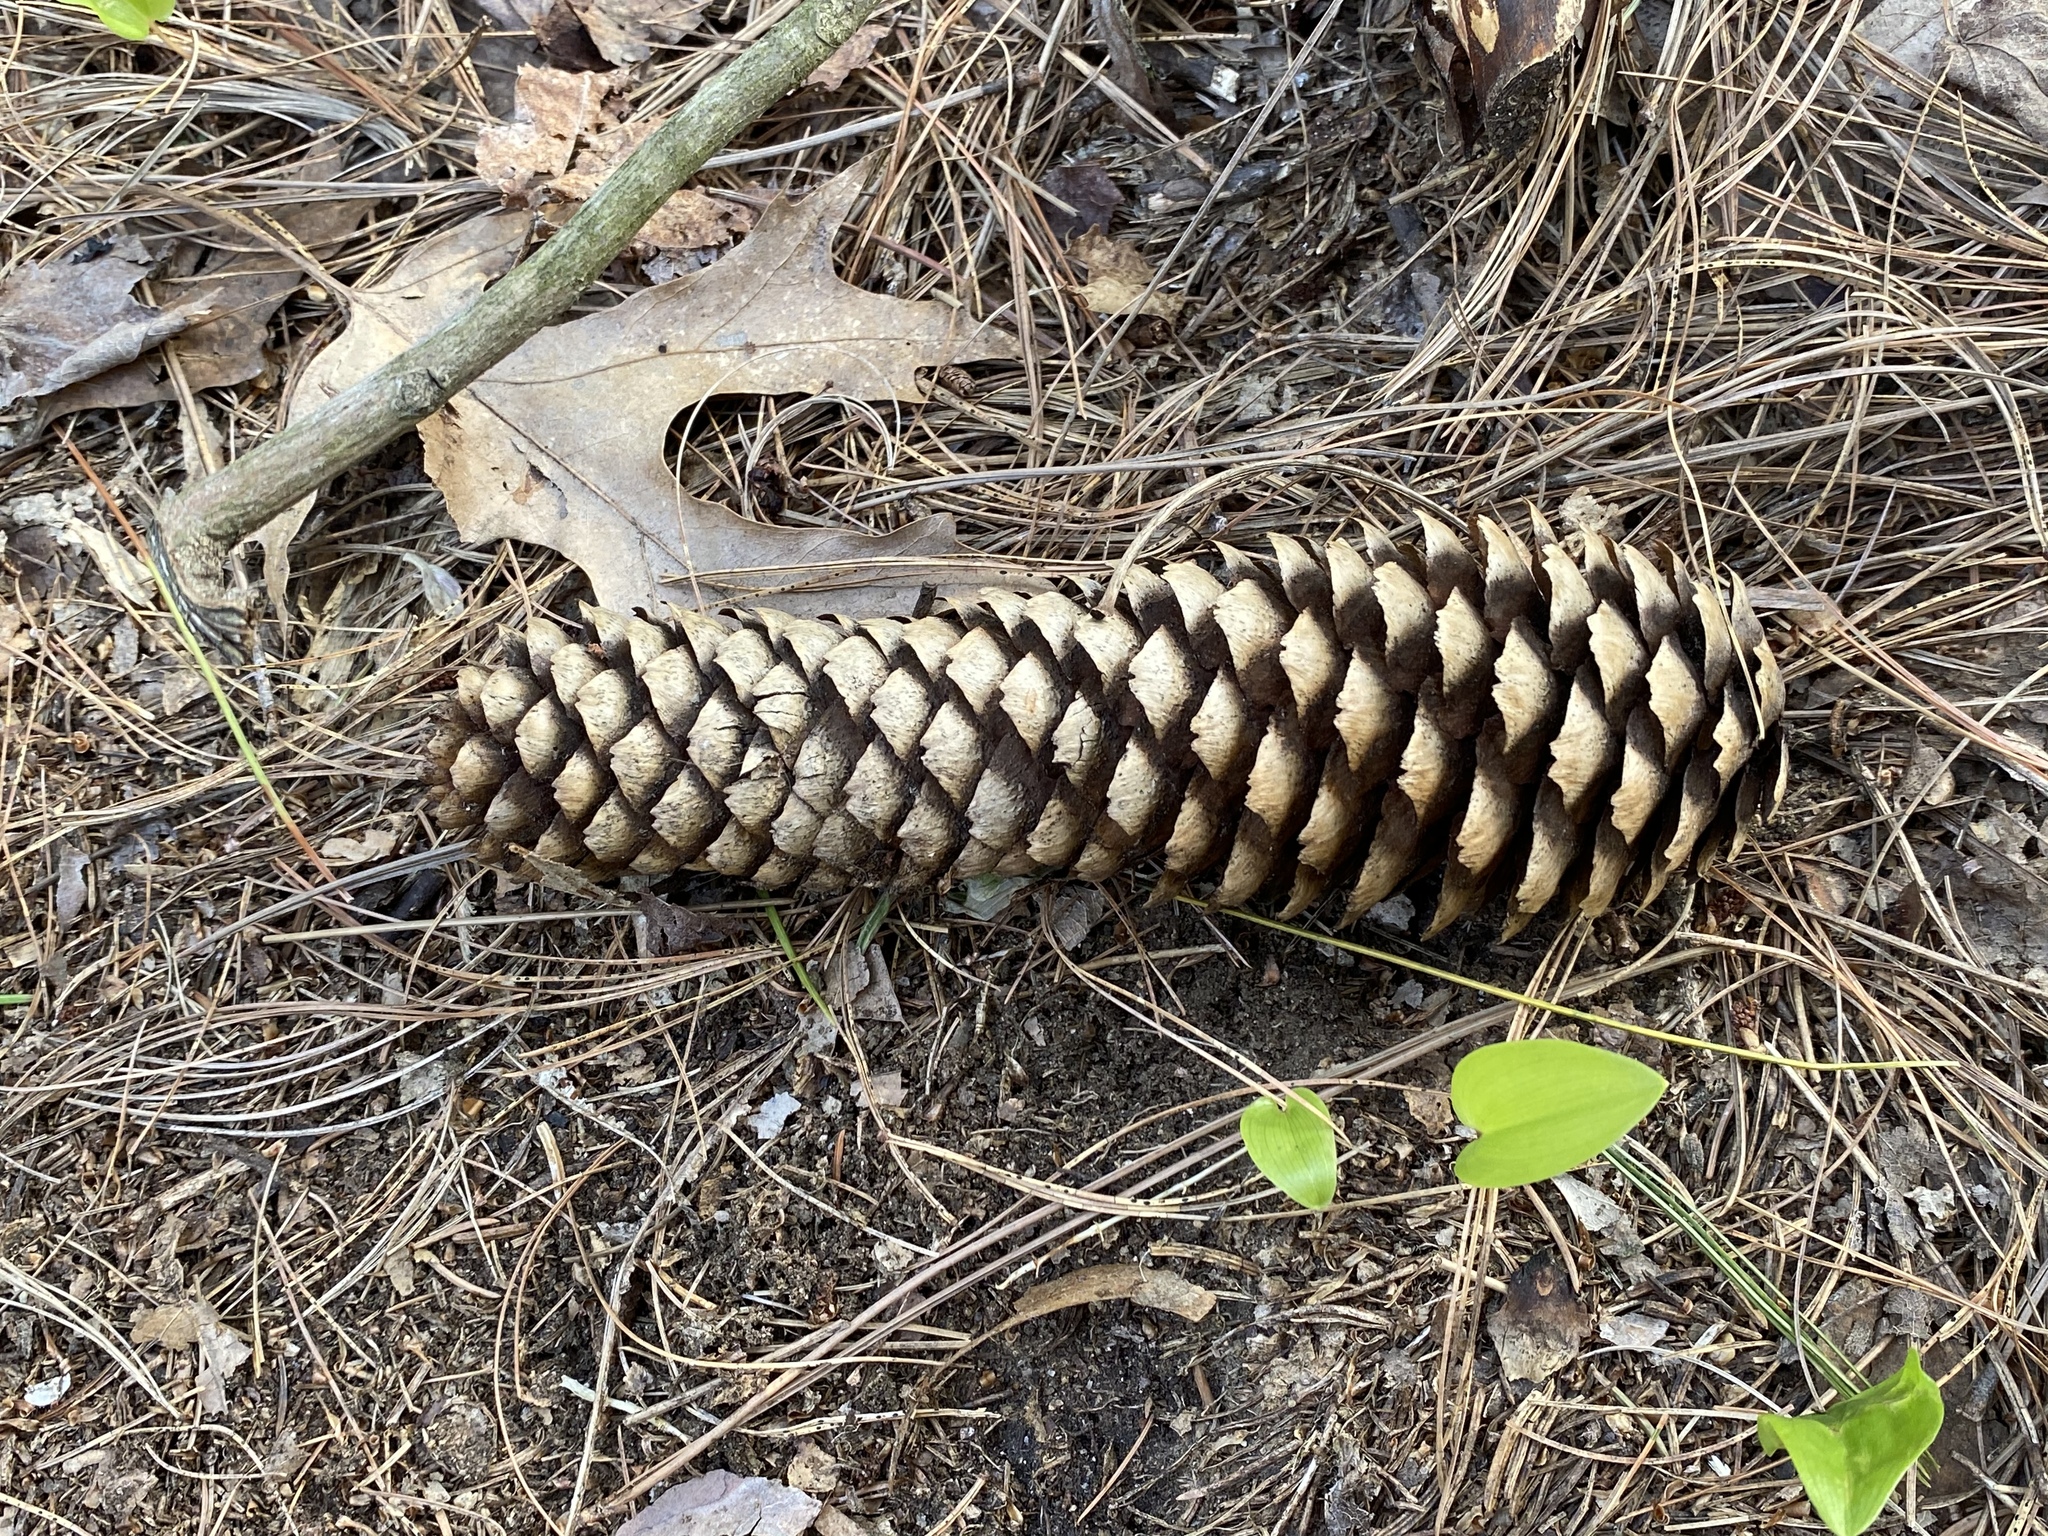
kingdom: Plantae
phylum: Tracheophyta
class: Pinopsida
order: Pinales
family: Pinaceae
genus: Pinus
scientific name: Pinus strobus
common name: Weymouth pine
